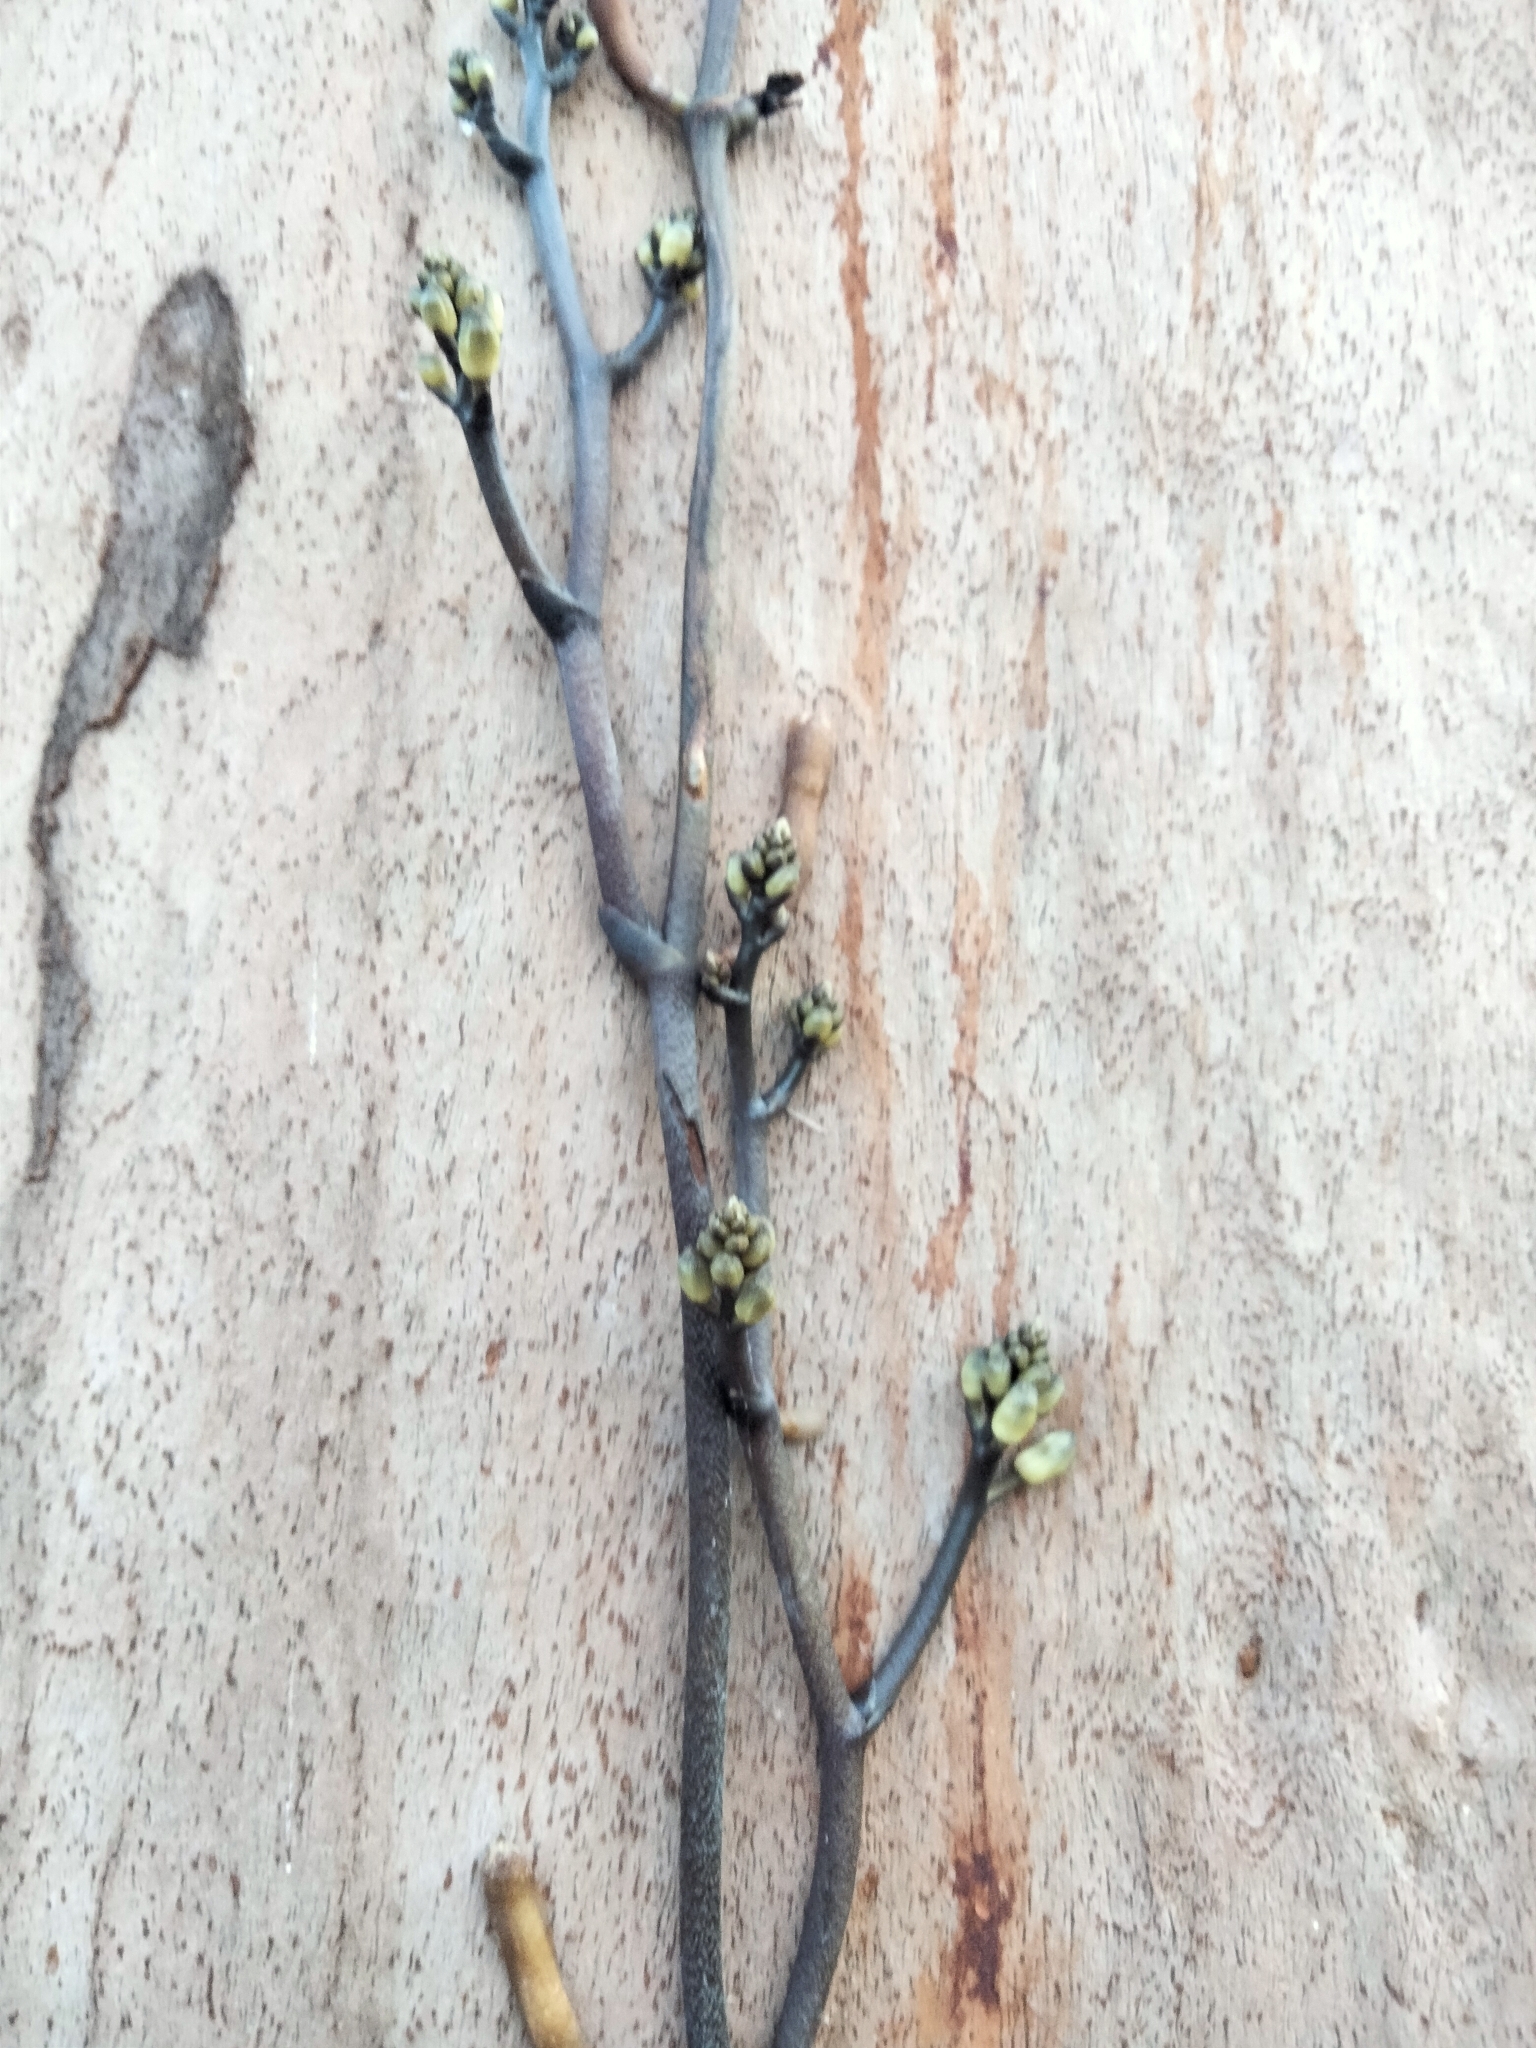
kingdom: Plantae
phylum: Tracheophyta
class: Liliopsida
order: Asparagales
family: Orchidaceae
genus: Erythrorchis
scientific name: Erythrorchis cassythoides
